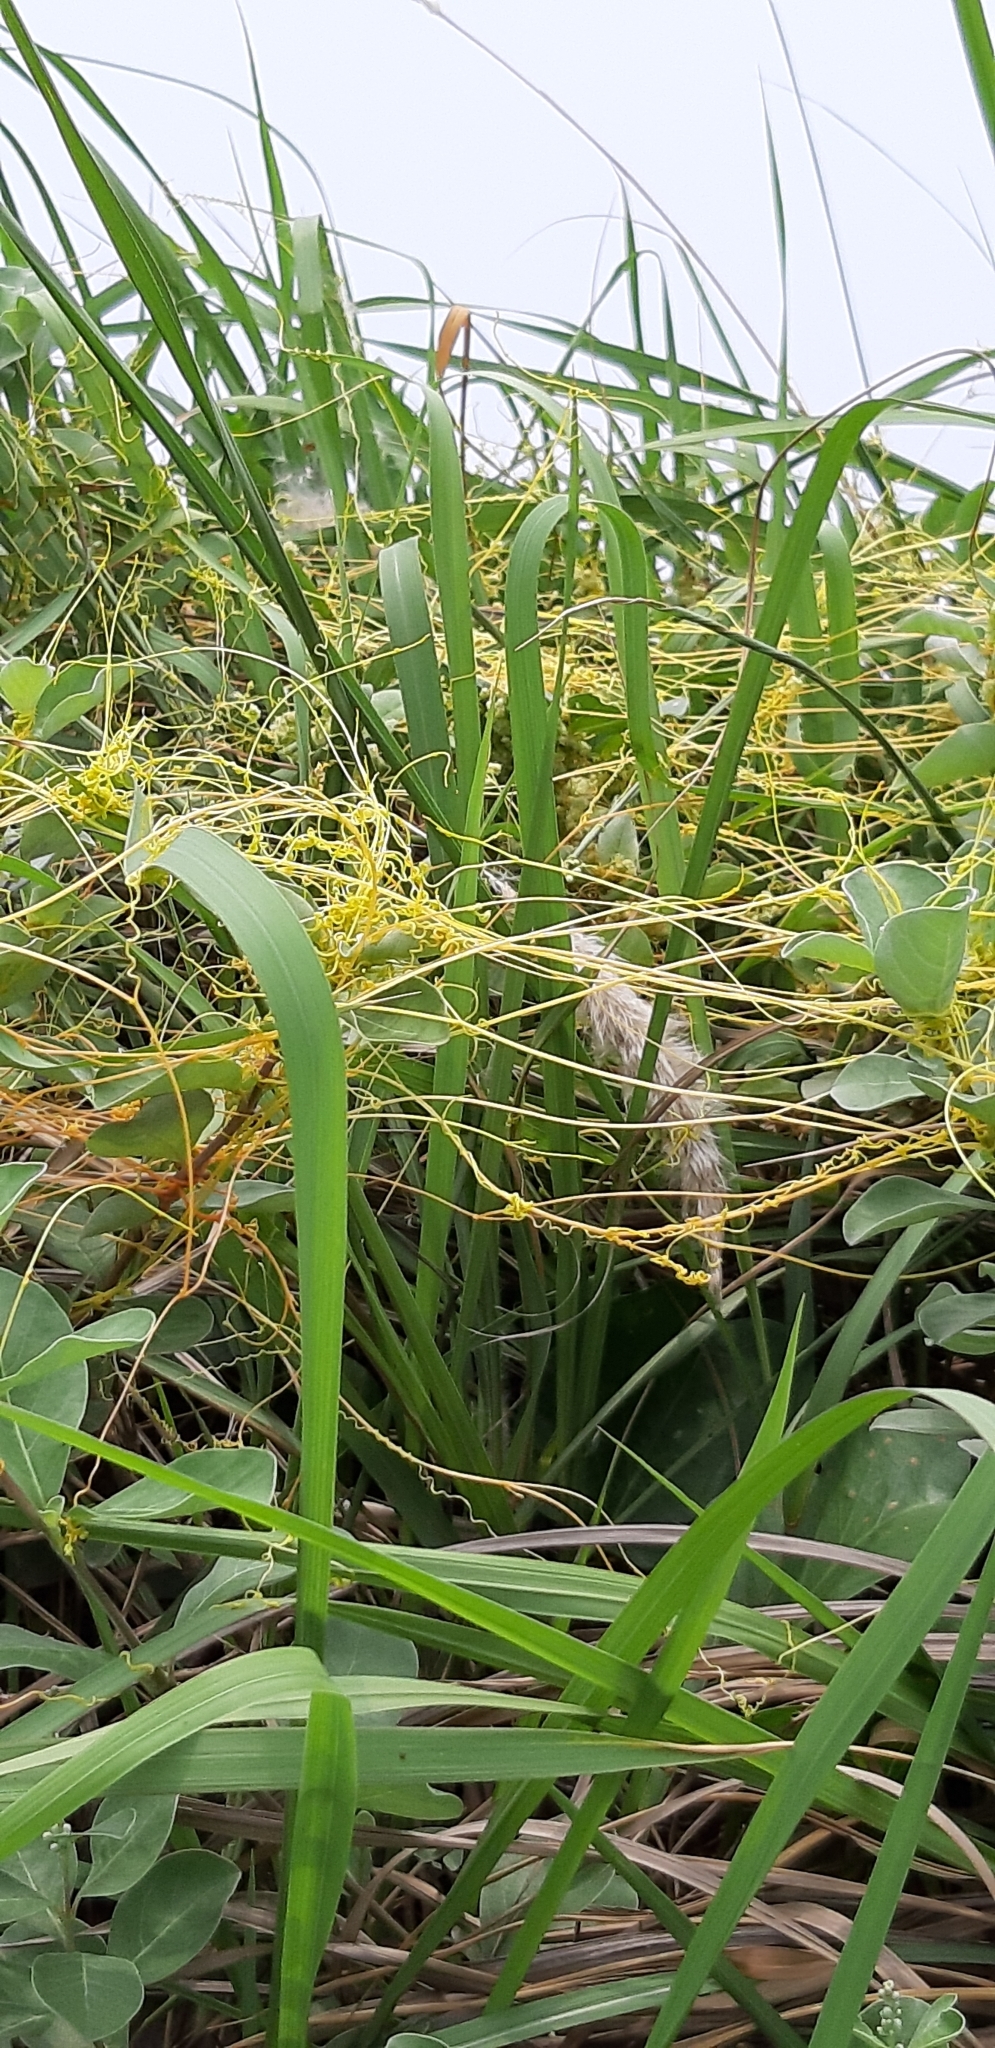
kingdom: Plantae
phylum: Tracheophyta
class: Magnoliopsida
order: Solanales
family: Convolvulaceae
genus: Cuscuta
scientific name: Cuscuta campestris
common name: Yellow dodder
